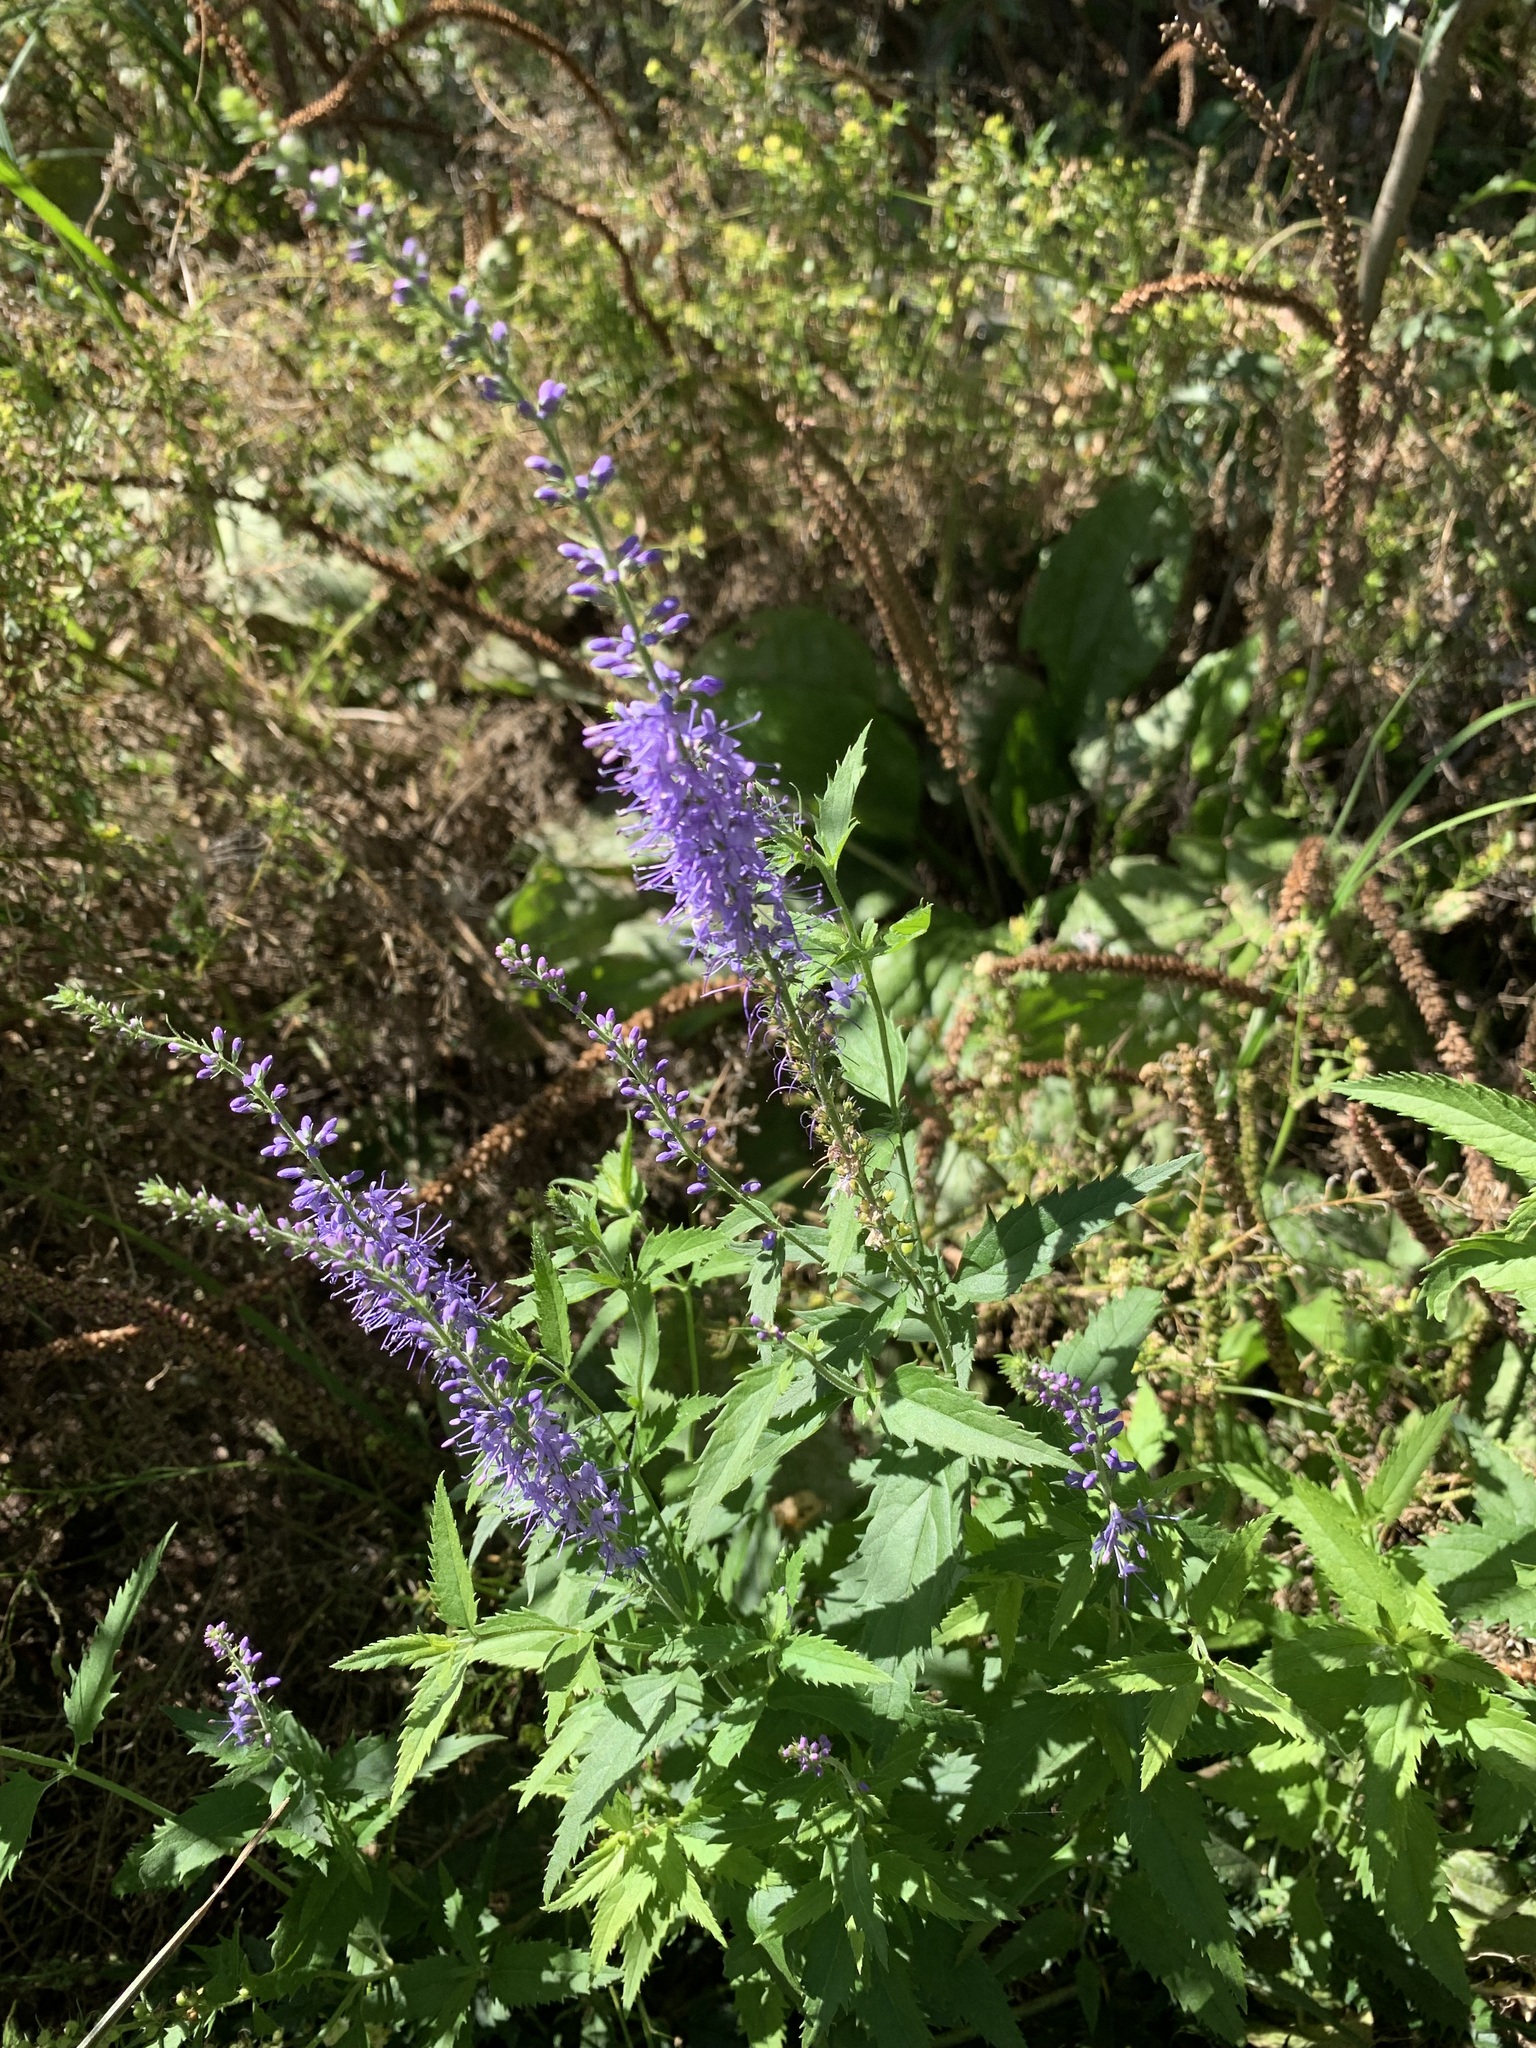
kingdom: Plantae
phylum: Tracheophyta
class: Magnoliopsida
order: Lamiales
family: Plantaginaceae
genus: Veronica
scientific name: Veronica longifolia
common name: Garden speedwell
